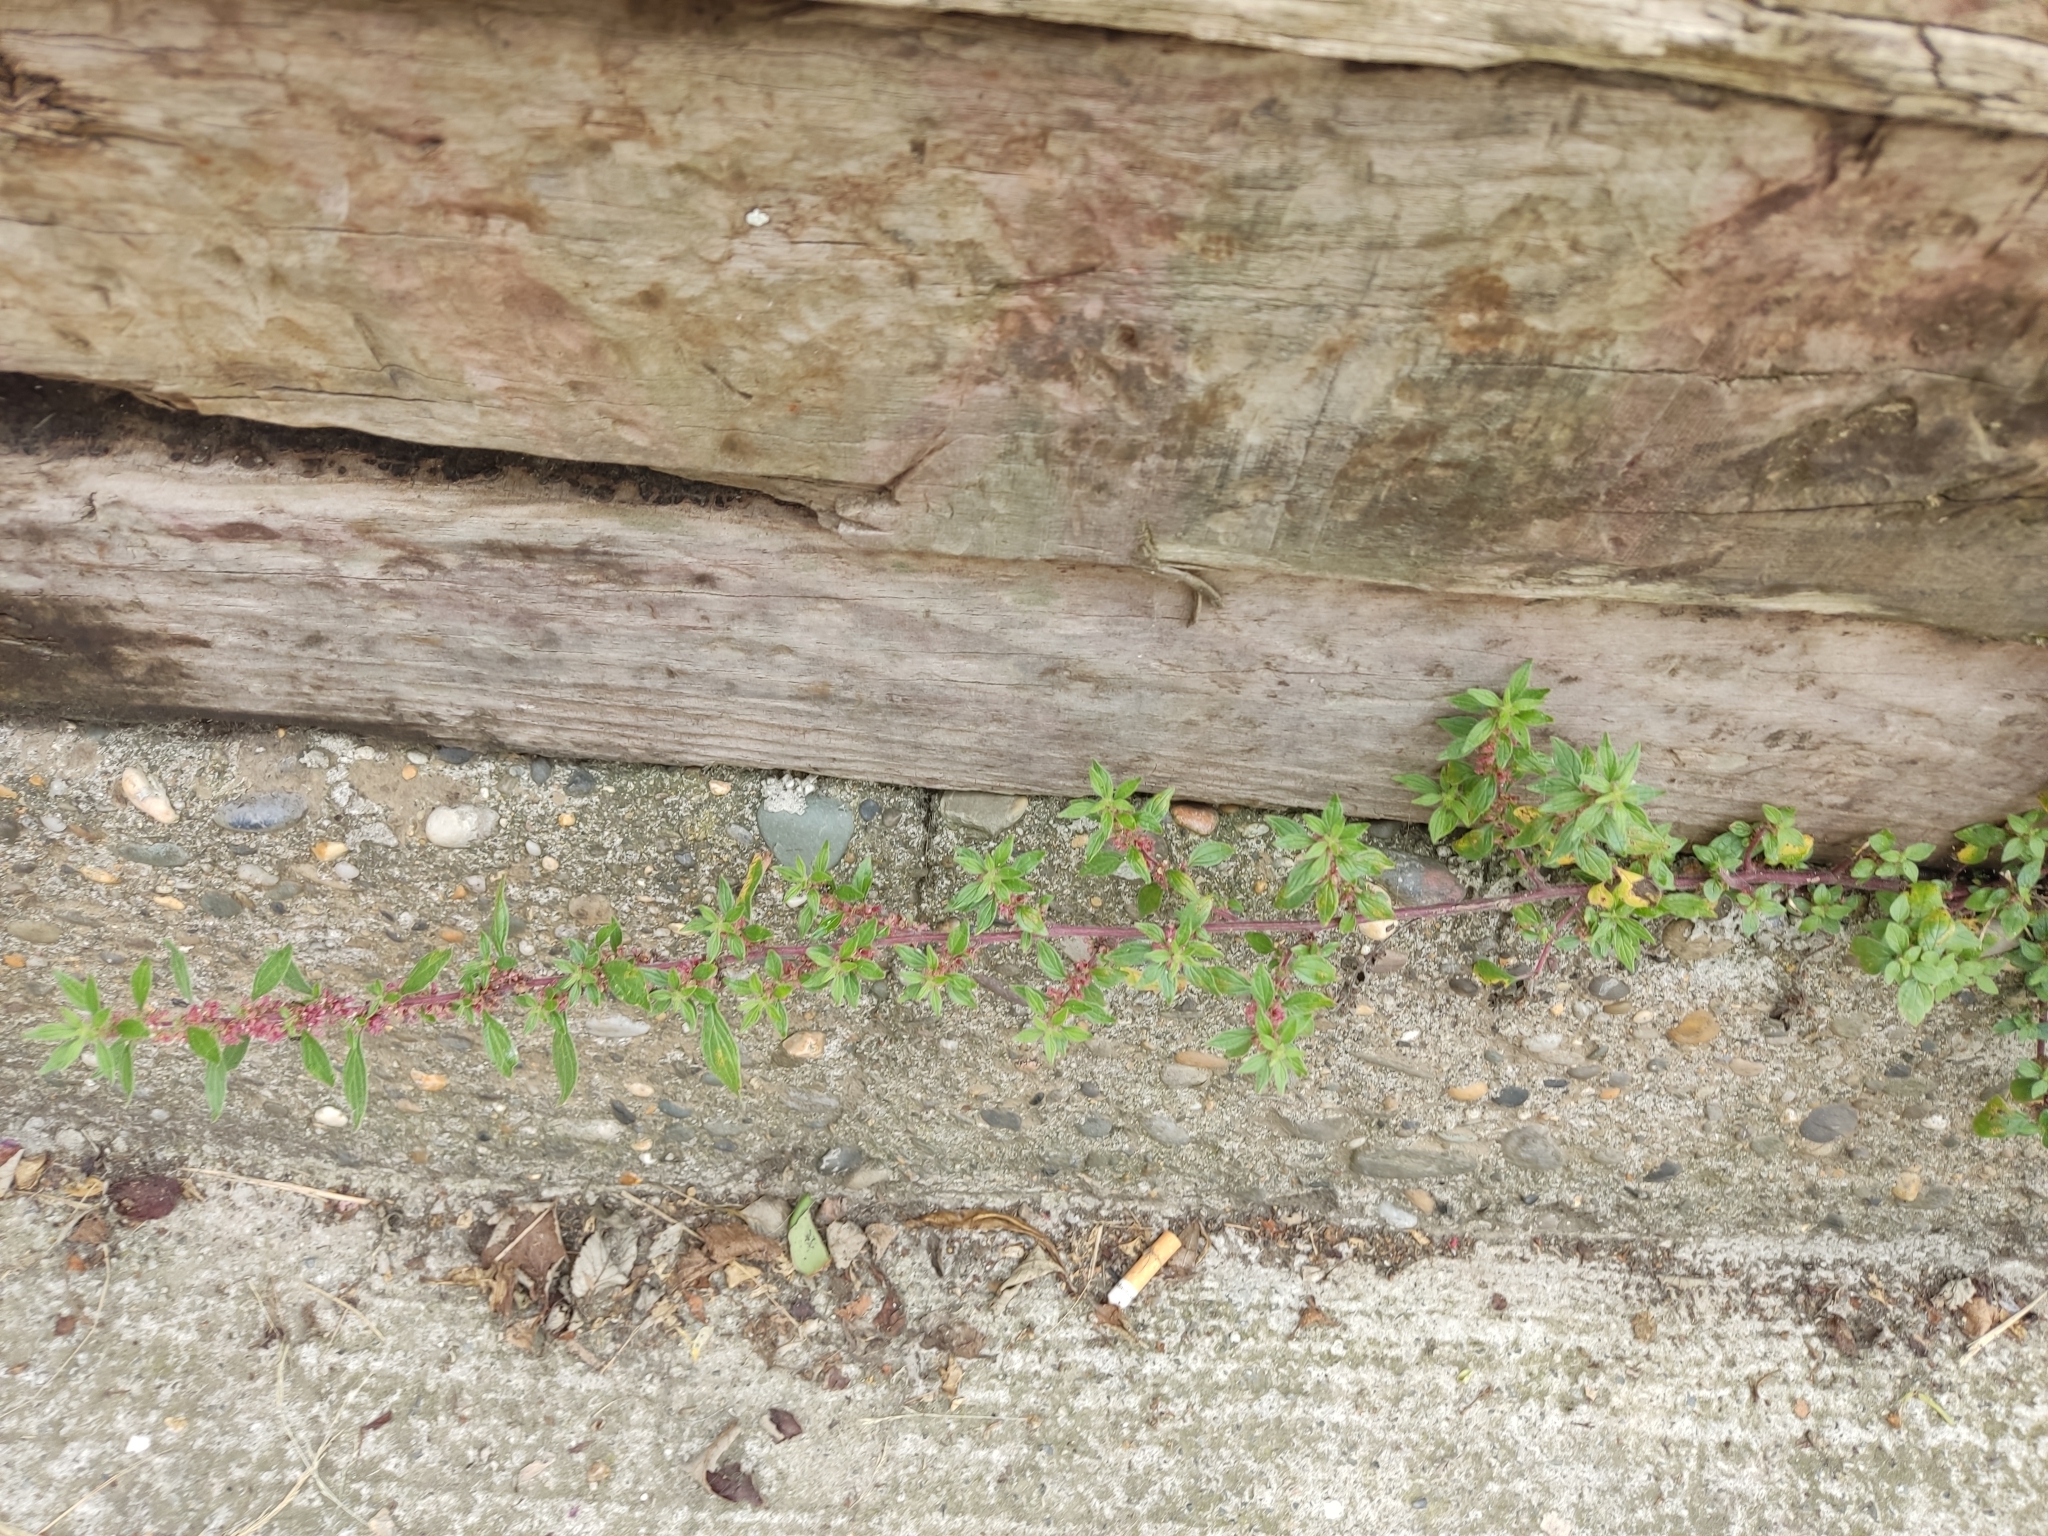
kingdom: Plantae
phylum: Tracheophyta
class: Magnoliopsida
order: Rosales
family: Urticaceae
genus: Parietaria
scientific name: Parietaria judaica
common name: Pellitory-of-the-wall
